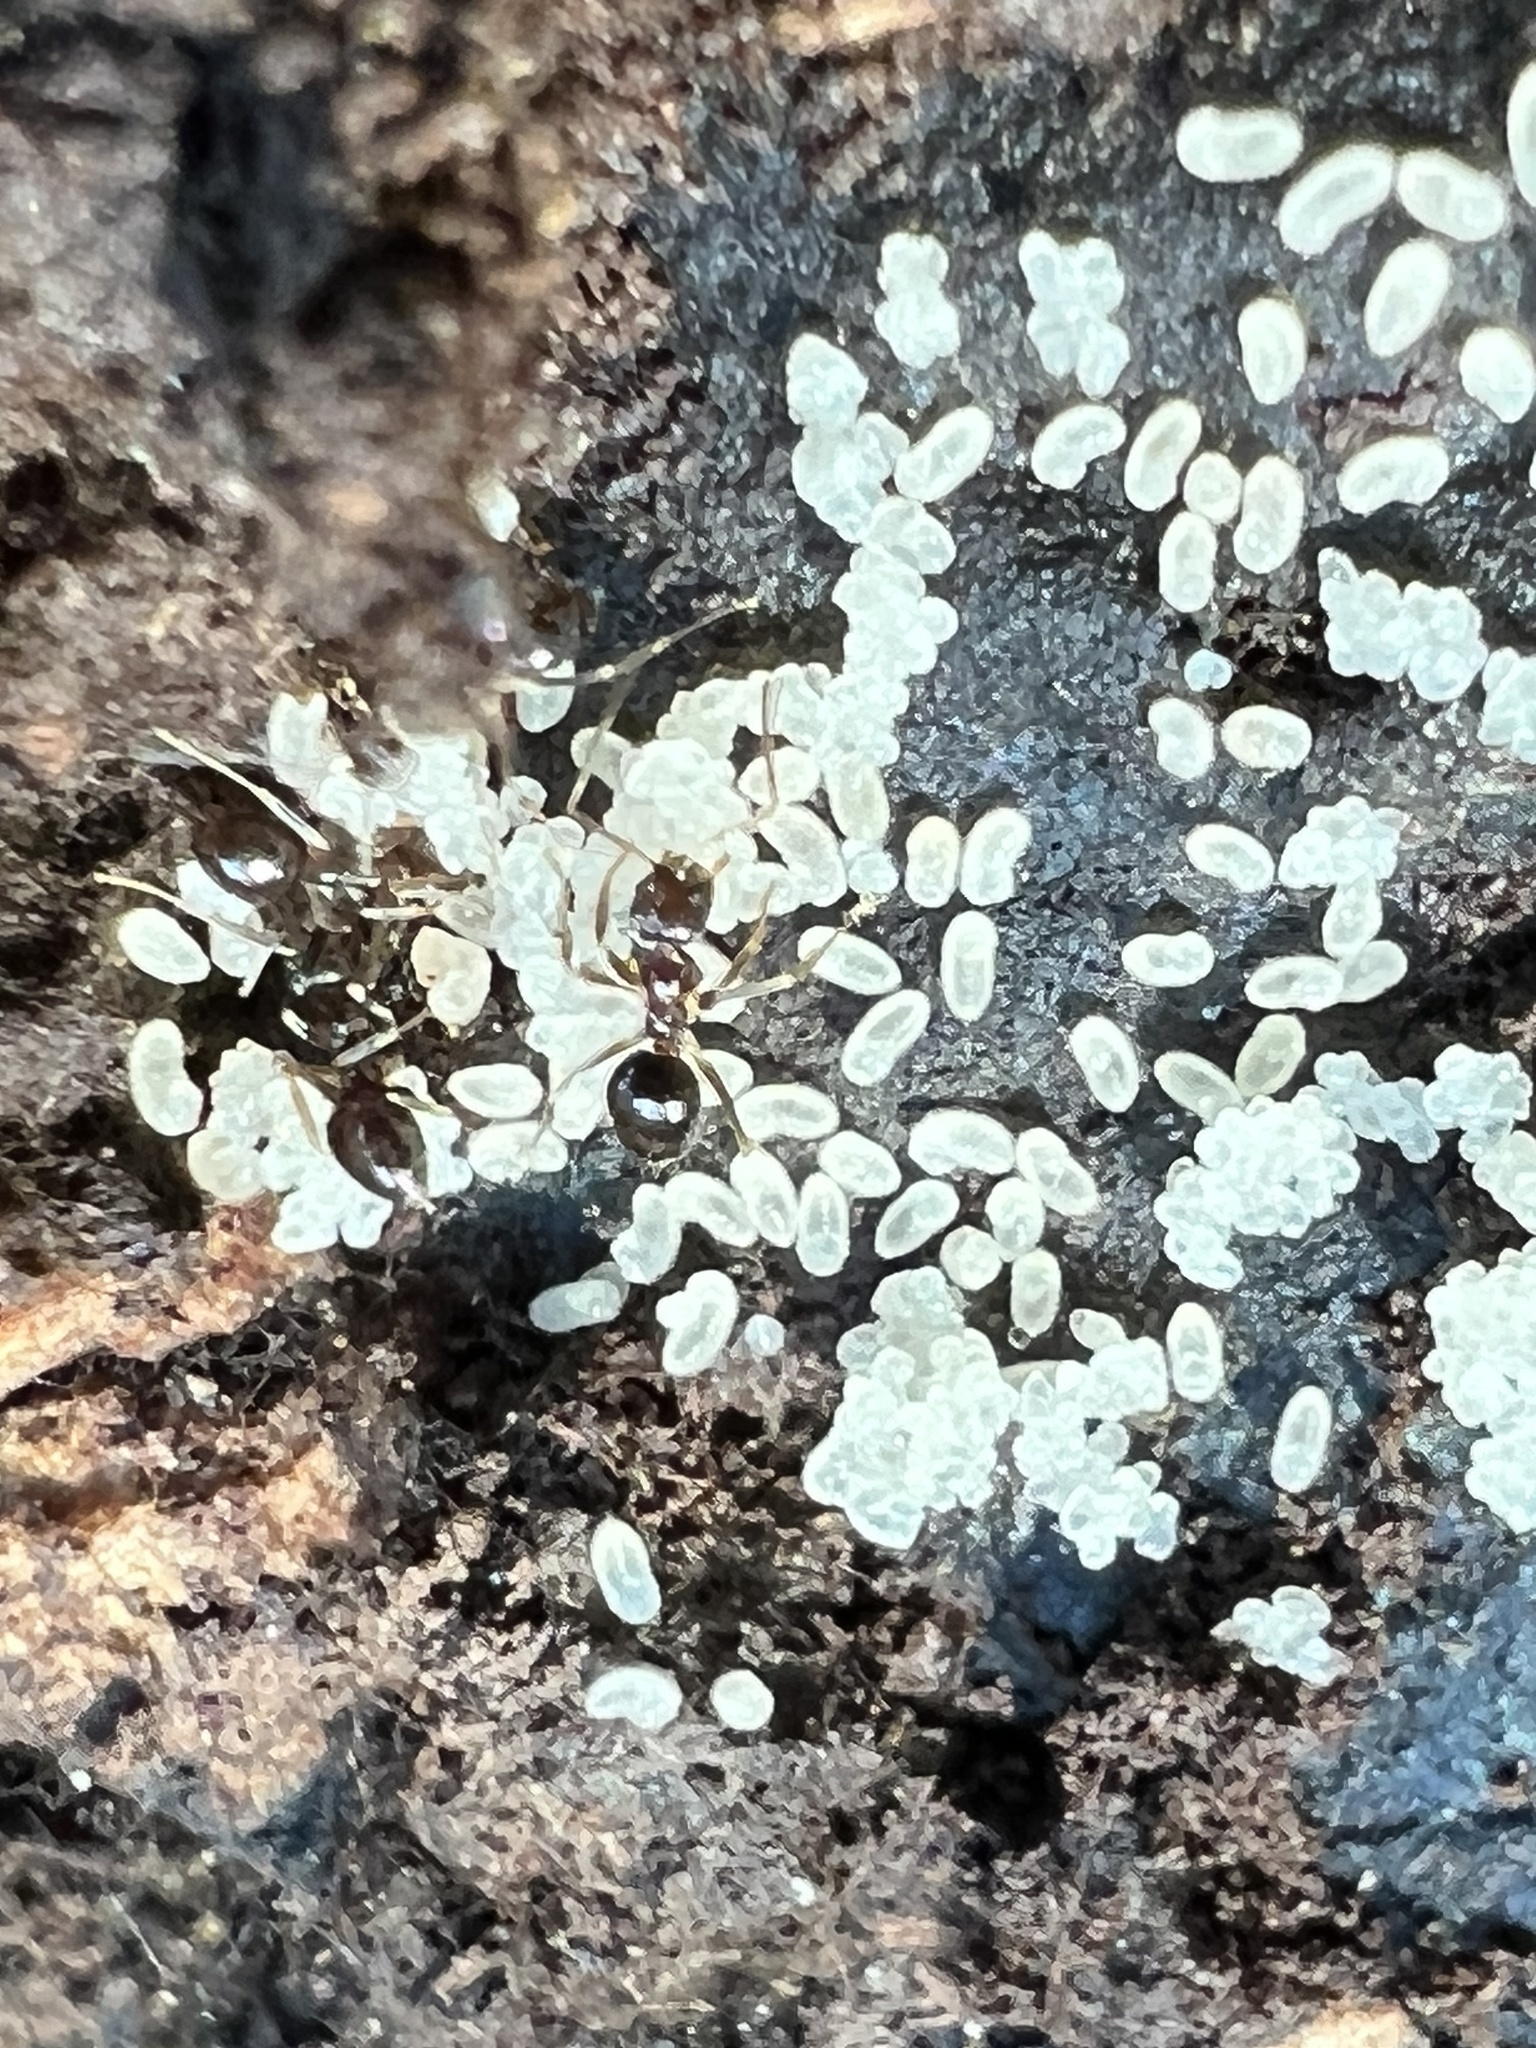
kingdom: Animalia
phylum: Arthropoda
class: Insecta
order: Hymenoptera
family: Formicidae
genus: Nylanderia
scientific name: Nylanderia faisonensis
